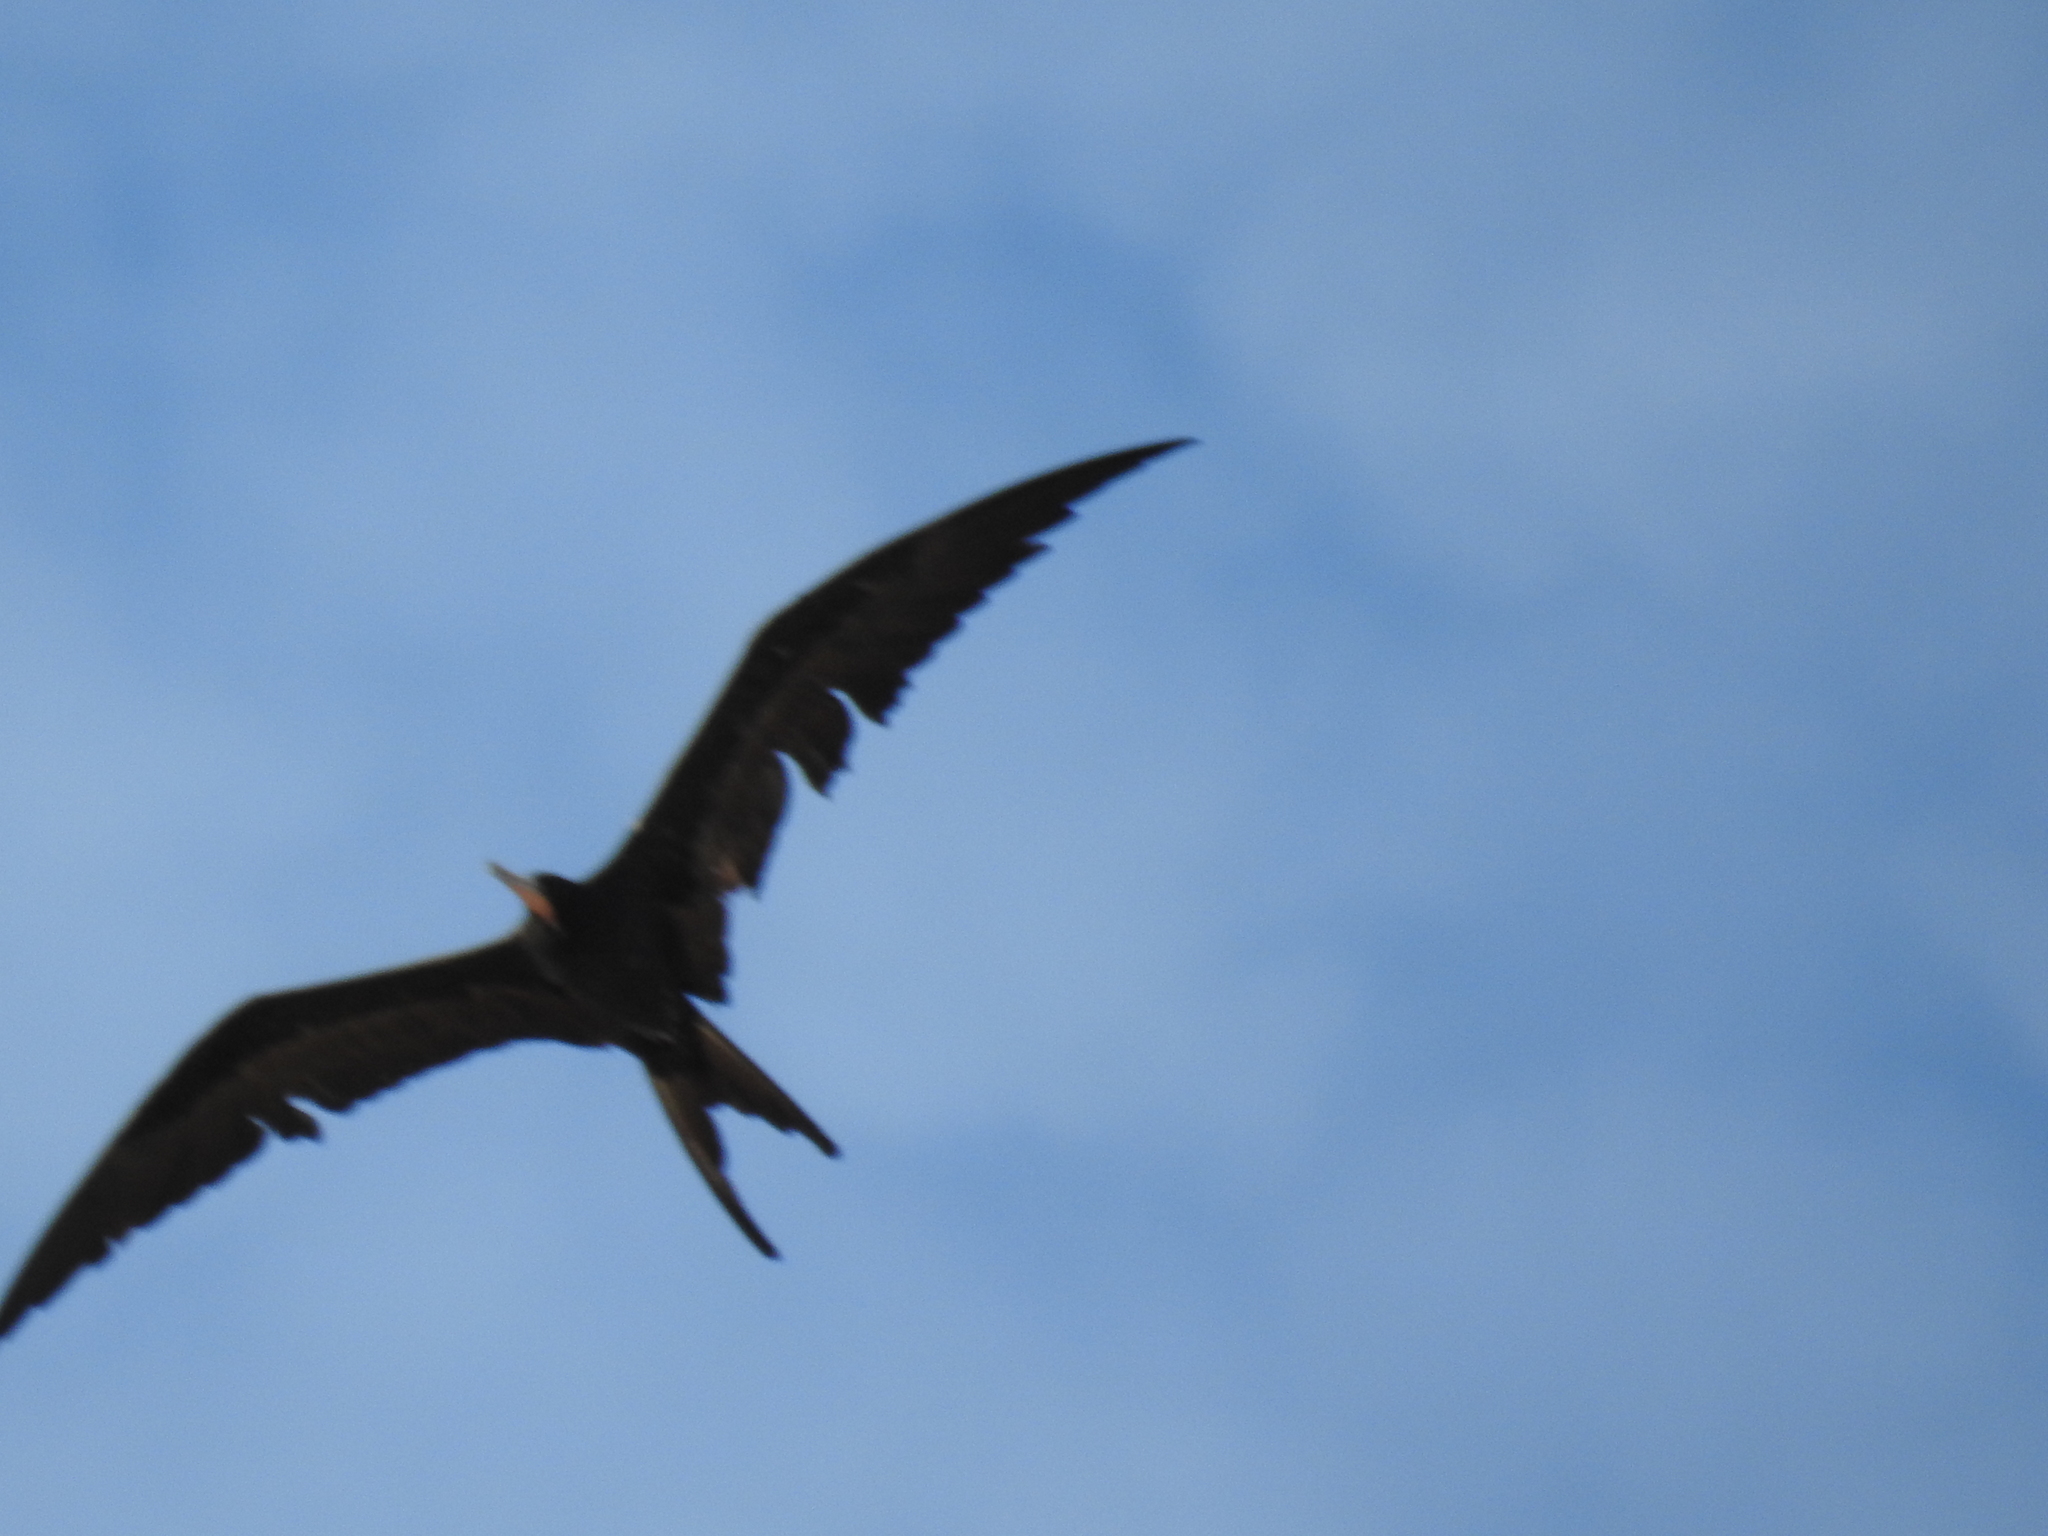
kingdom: Animalia
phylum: Chordata
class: Aves
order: Suliformes
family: Fregatidae
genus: Fregata
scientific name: Fregata magnificens
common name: Magnificent frigatebird
